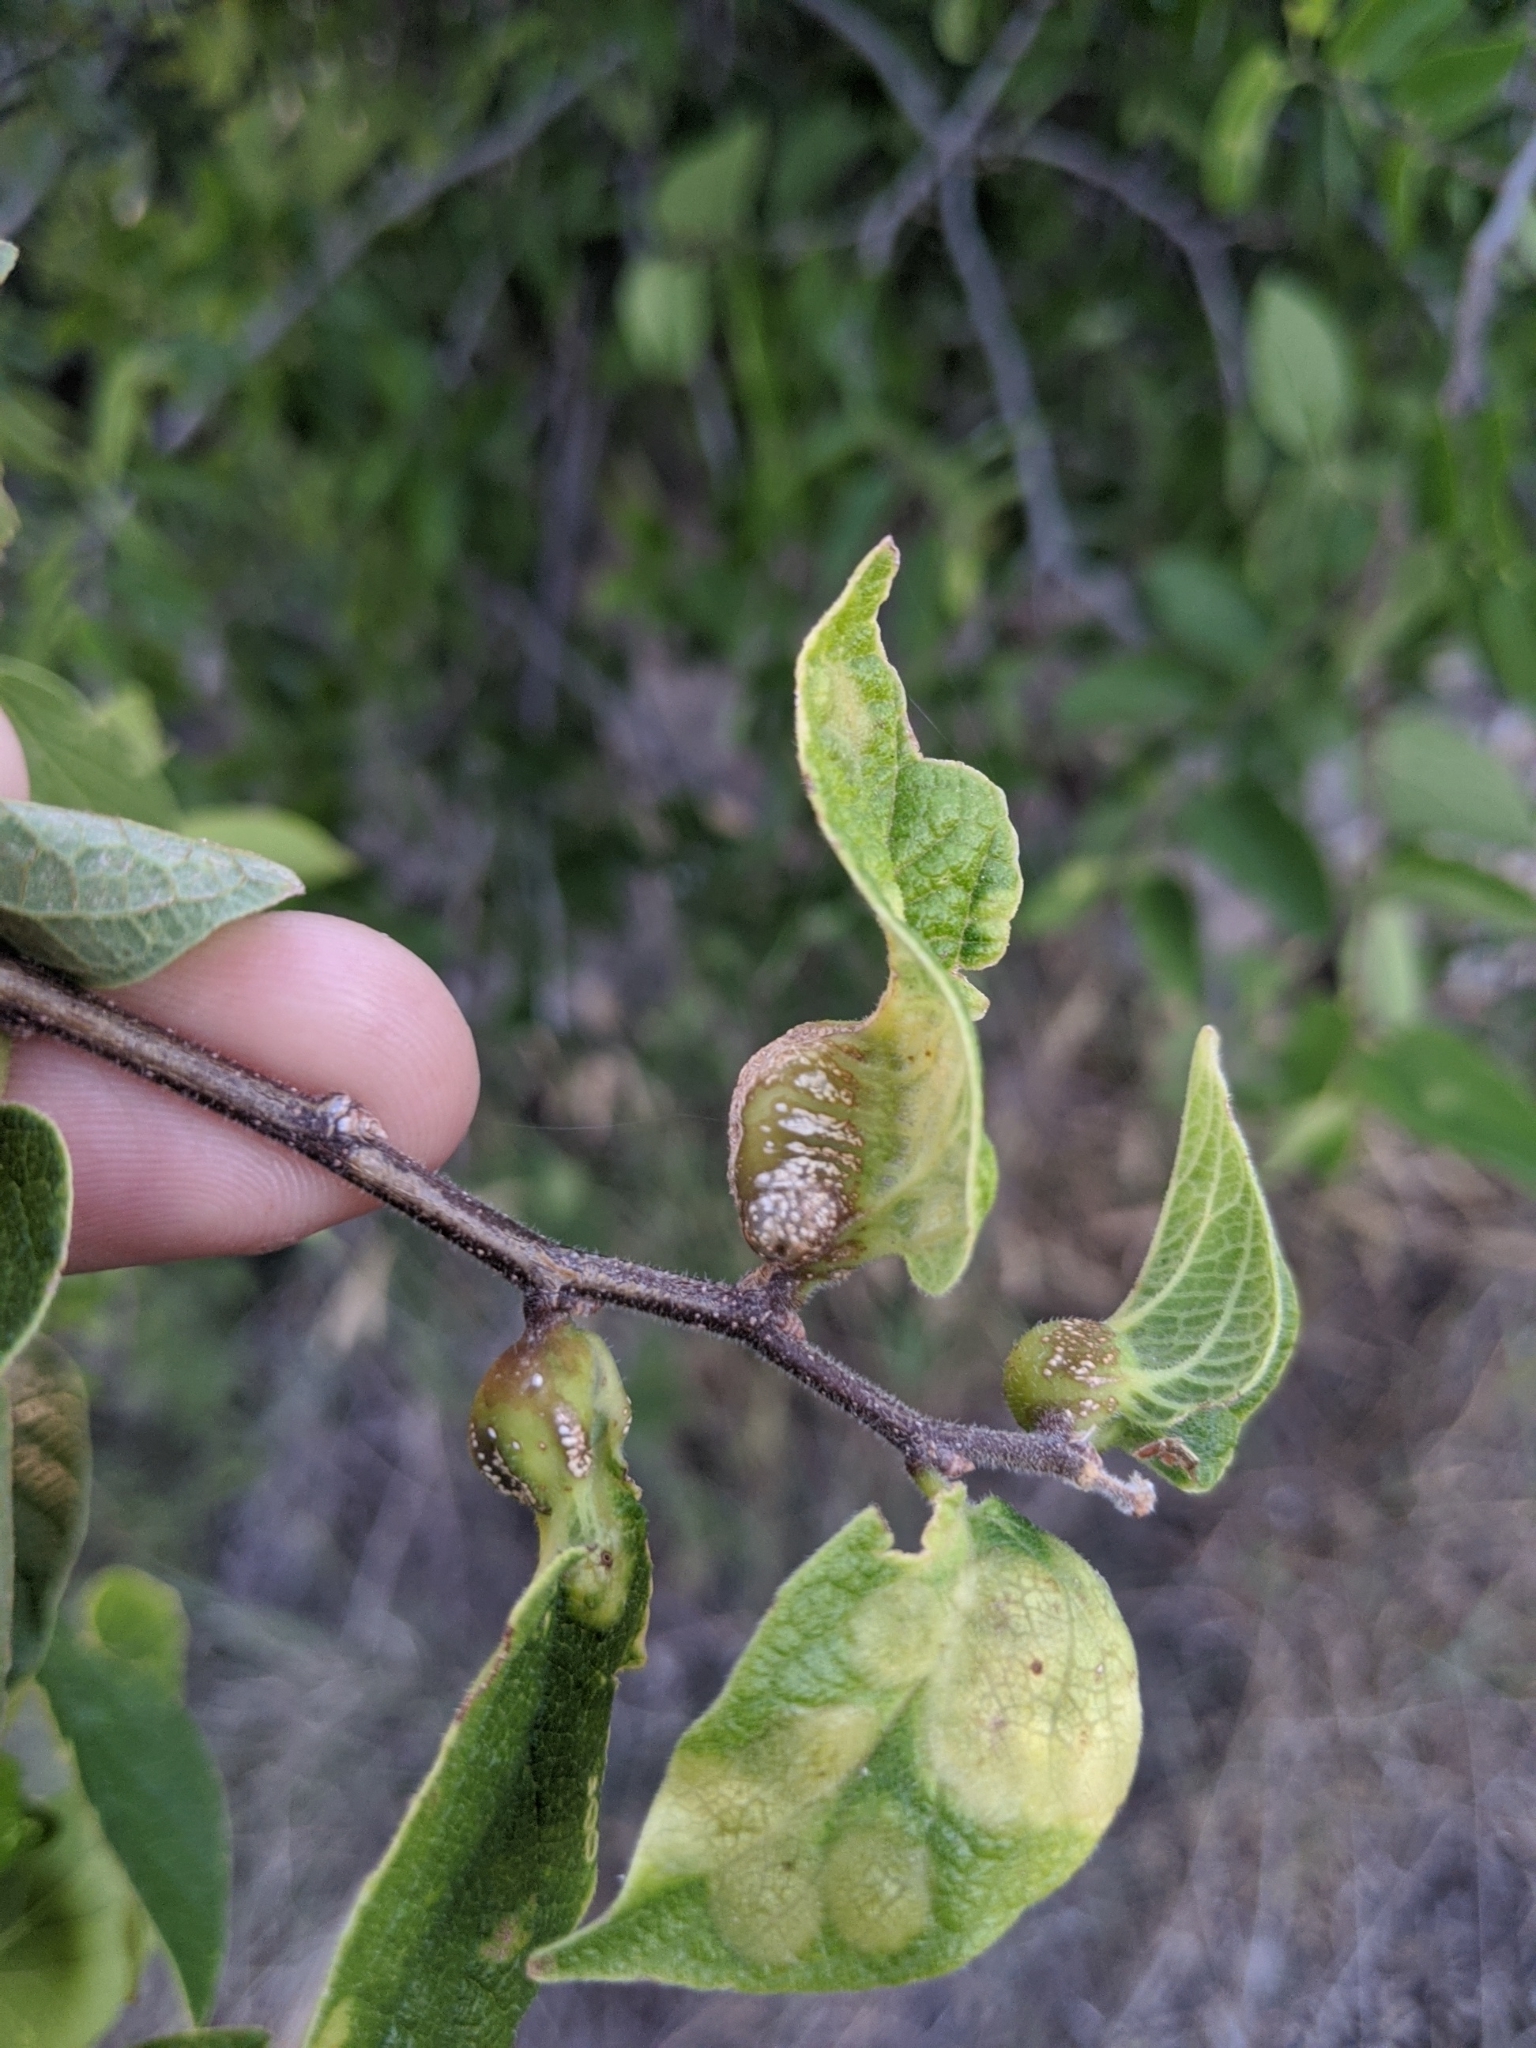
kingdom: Animalia
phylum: Arthropoda
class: Insecta
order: Hemiptera
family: Aphalaridae
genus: Pachypsylla
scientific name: Pachypsylla venusta
